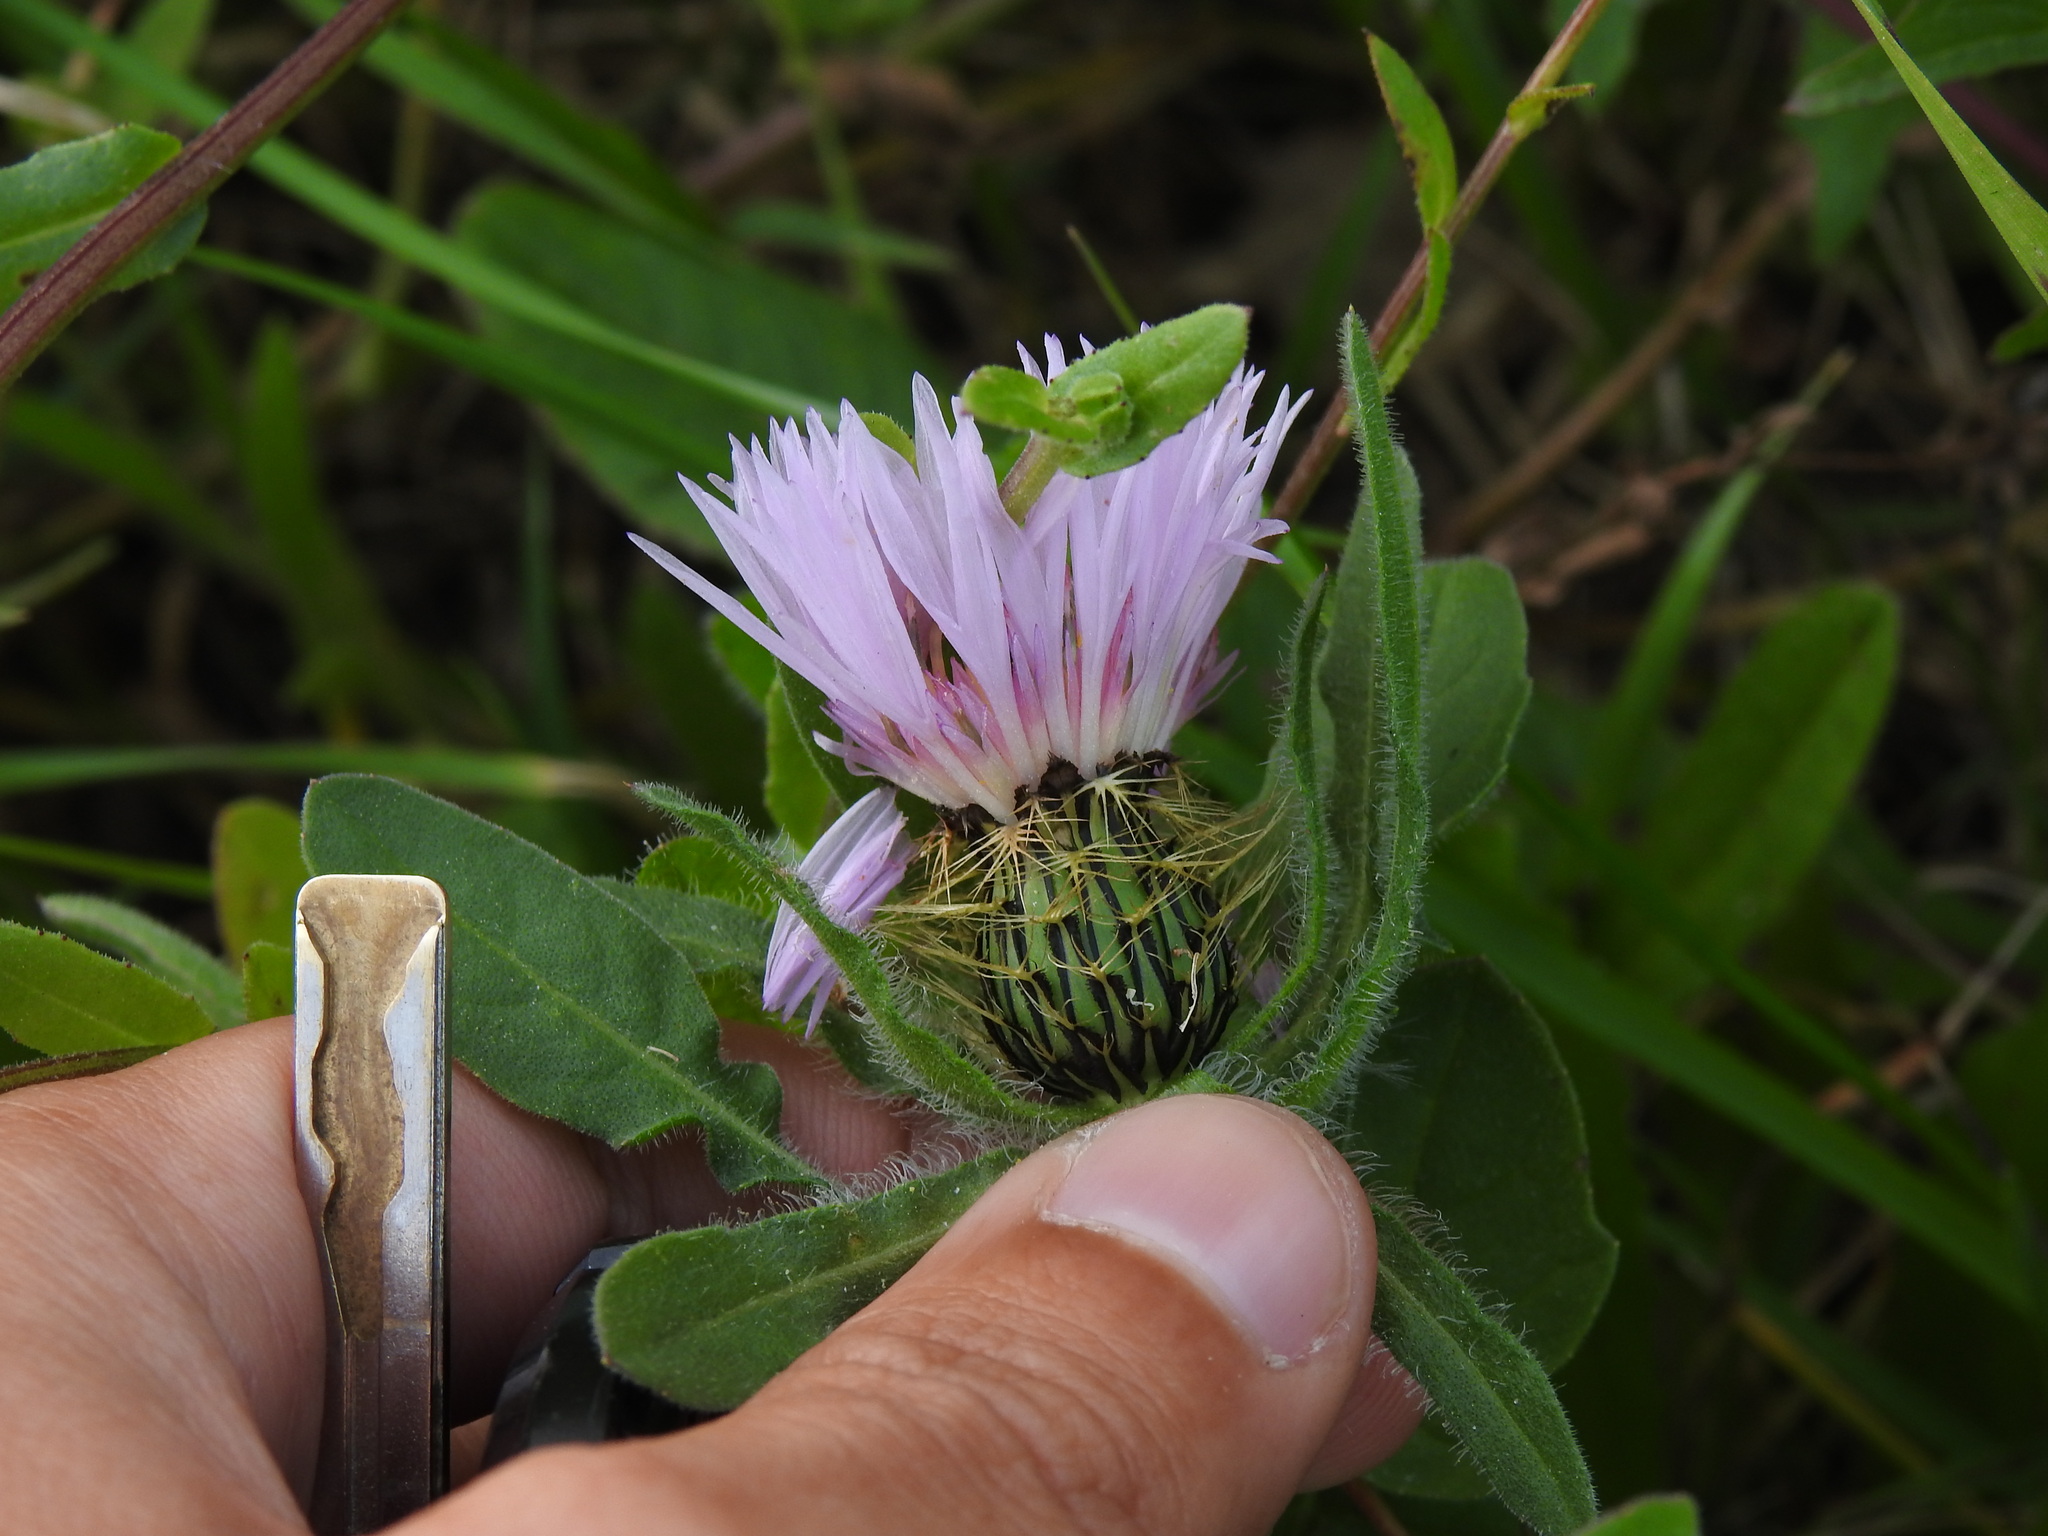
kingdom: Plantae
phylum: Tracheophyta
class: Magnoliopsida
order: Asterales
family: Asteraceae
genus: Centaurea
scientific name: Centaurea pullata
